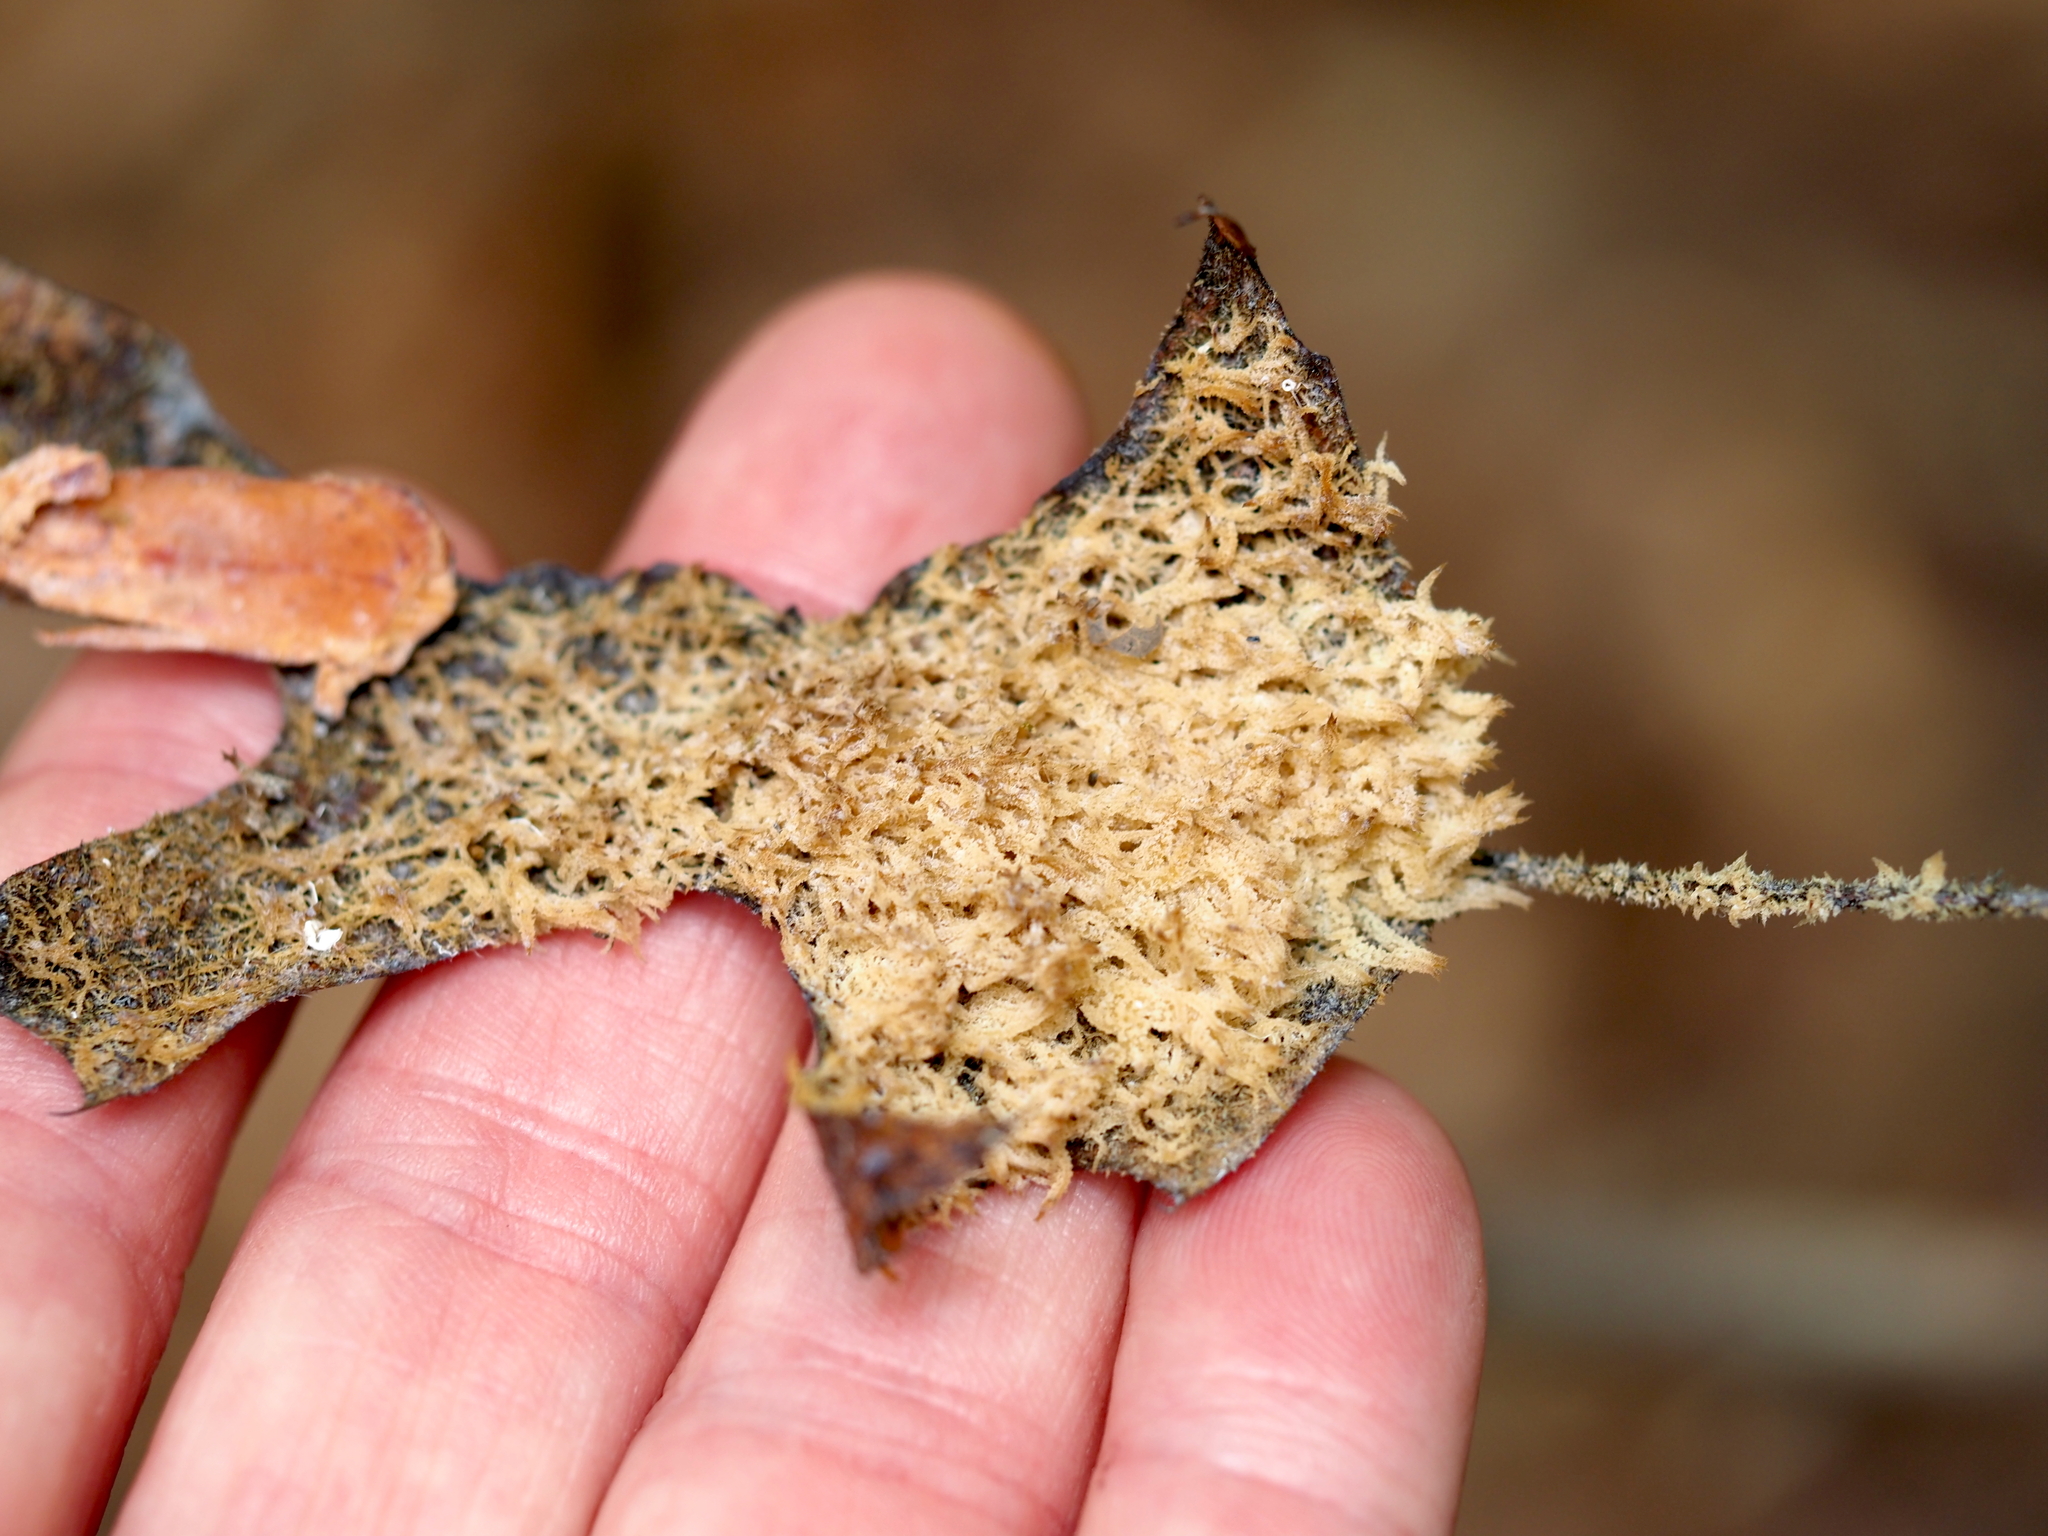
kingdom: Fungi
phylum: Ascomycota
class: Dothideomycetes
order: Capnodiales
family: Capnodiaceae
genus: Scorias
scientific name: Scorias spongiosa
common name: Black sooty mold
